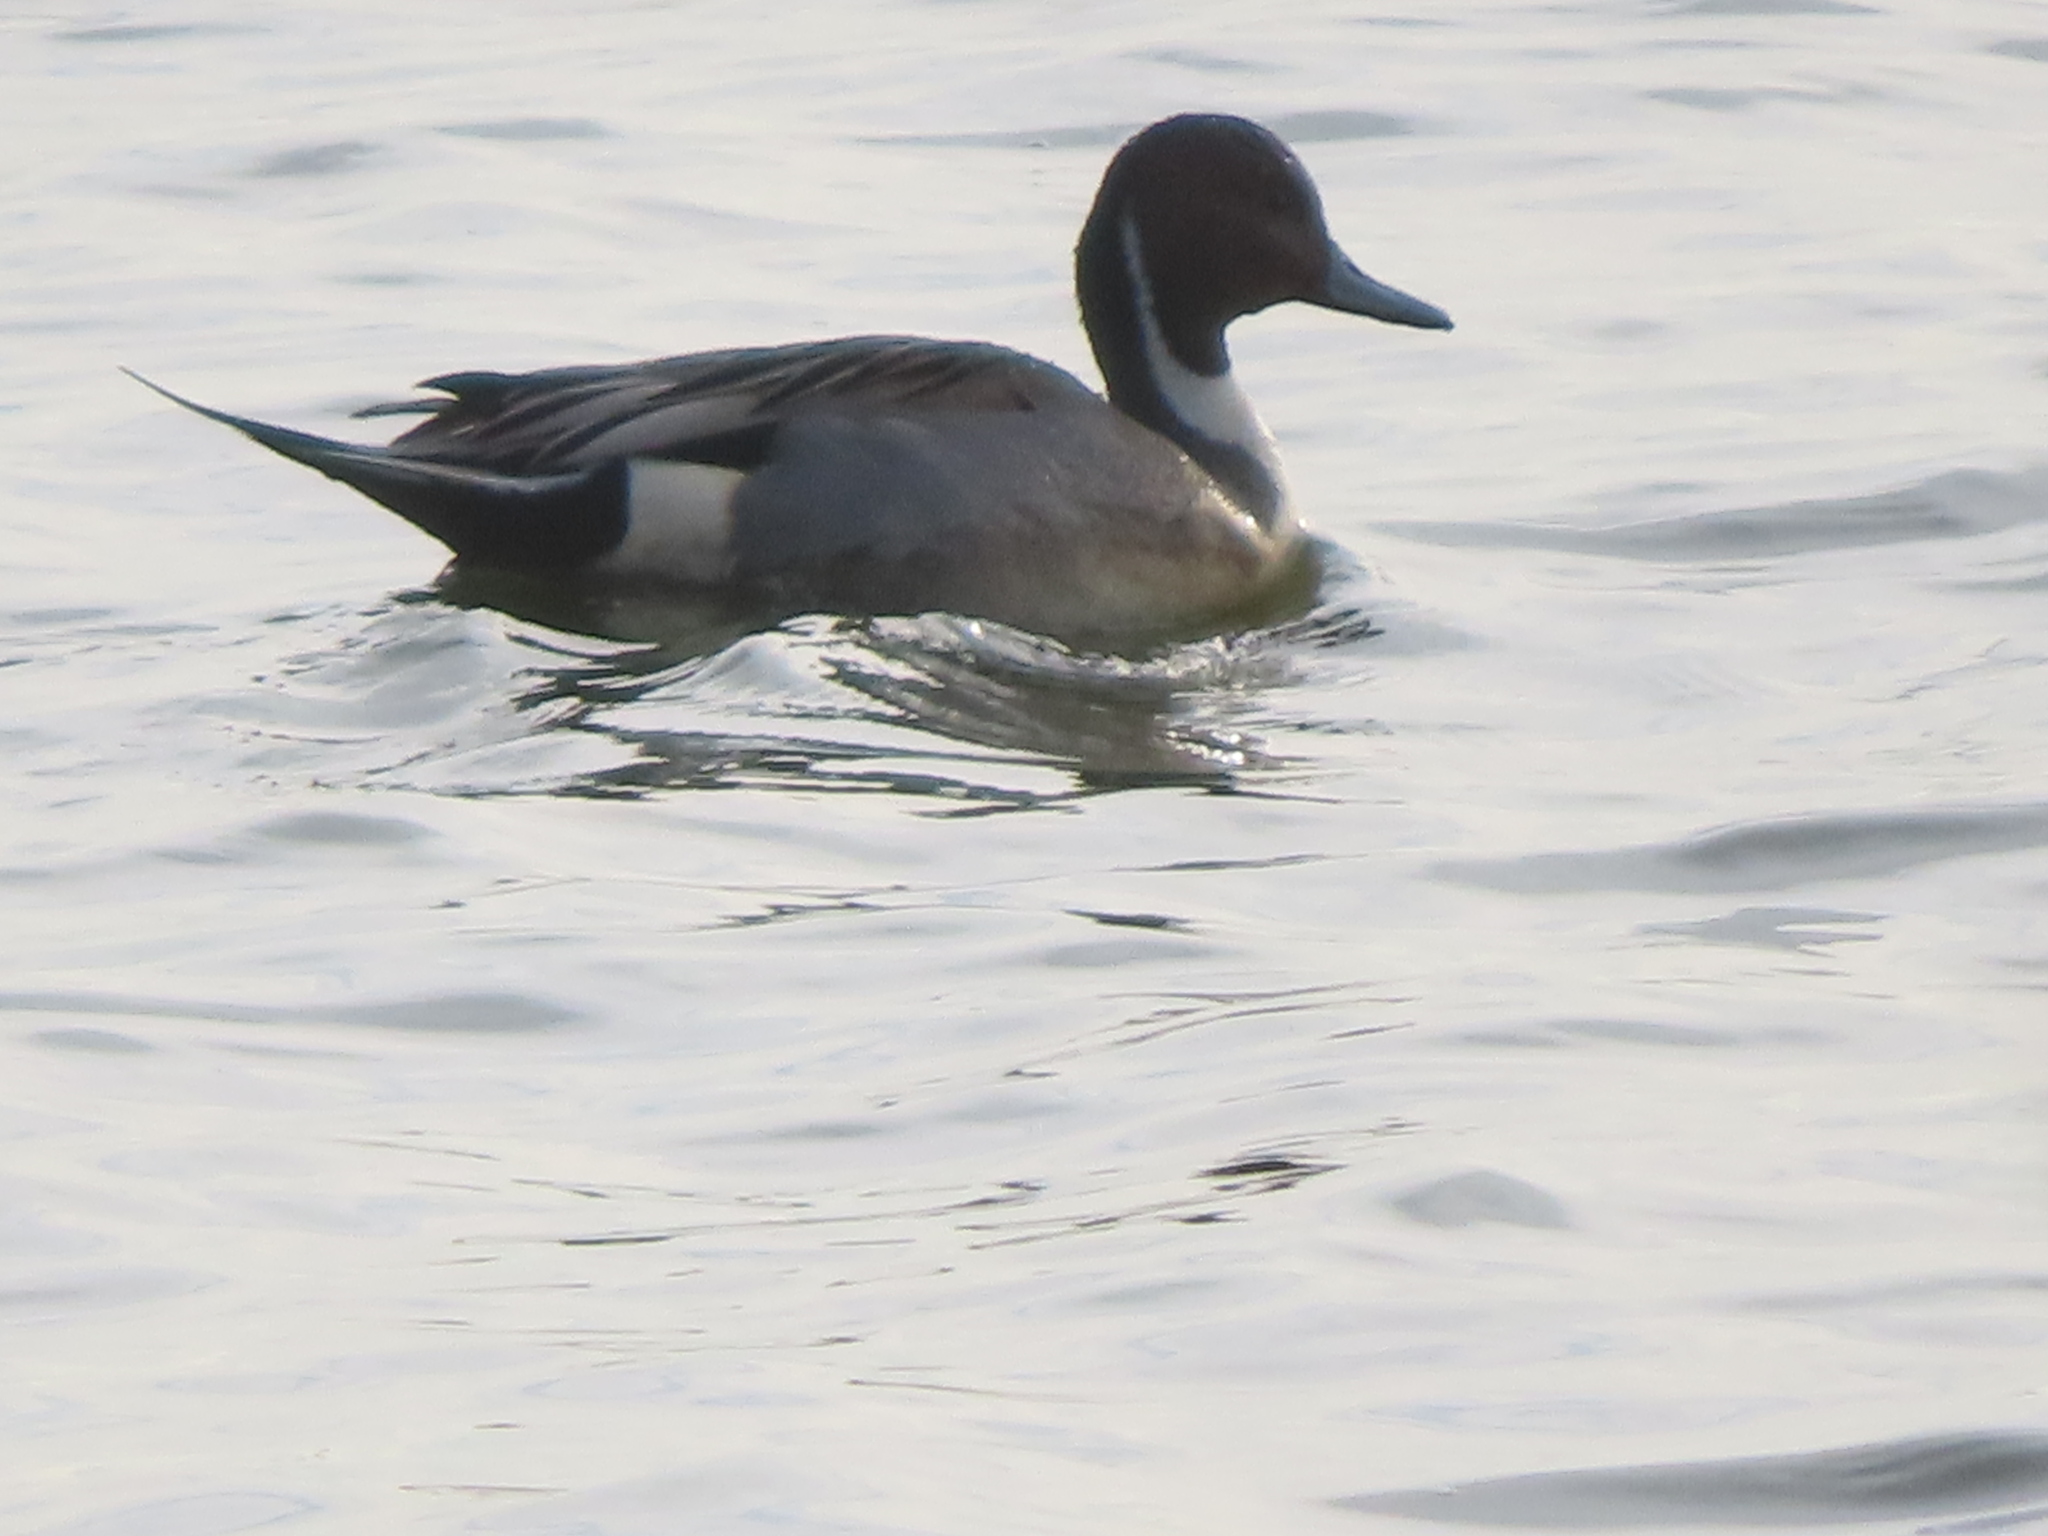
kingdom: Animalia
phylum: Chordata
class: Aves
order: Anseriformes
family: Anatidae
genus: Anas
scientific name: Anas acuta
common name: Northern pintail
